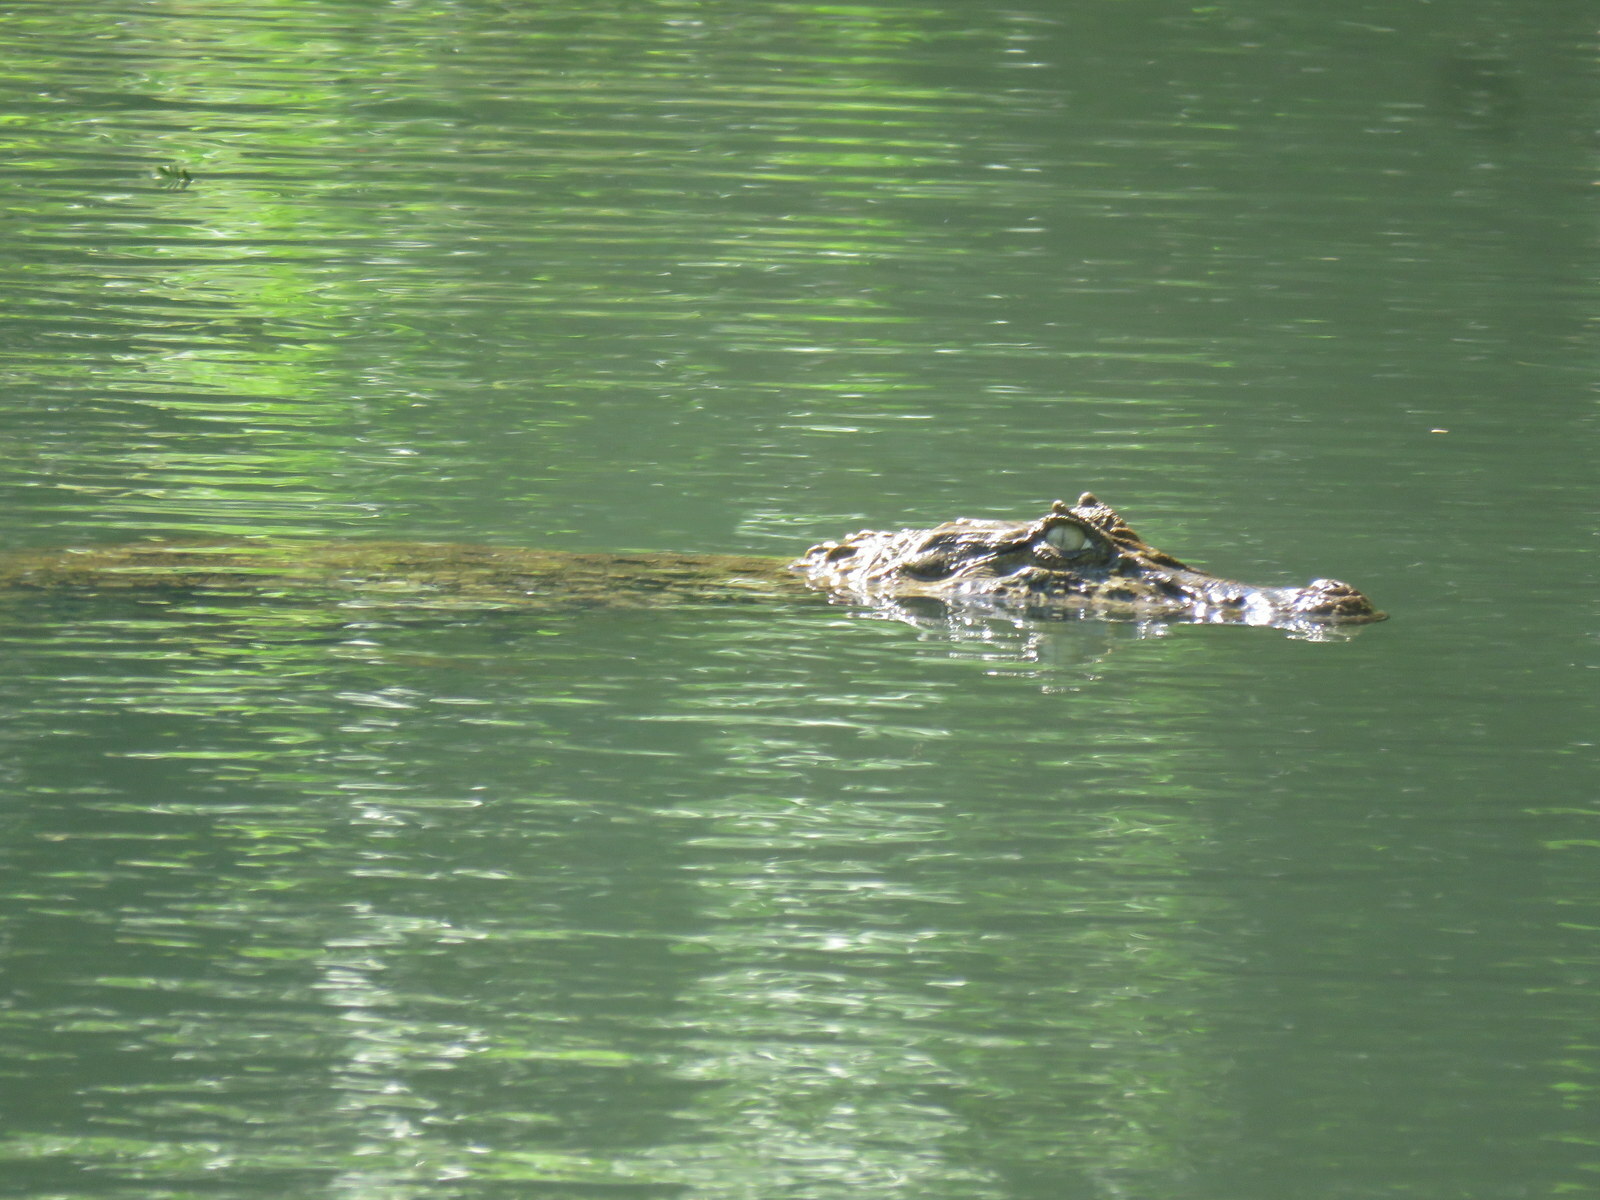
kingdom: Animalia
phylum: Chordata
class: Crocodylia
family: Alligatoridae
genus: Caiman
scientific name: Caiman latirostris
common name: Broad-snouted caiman
